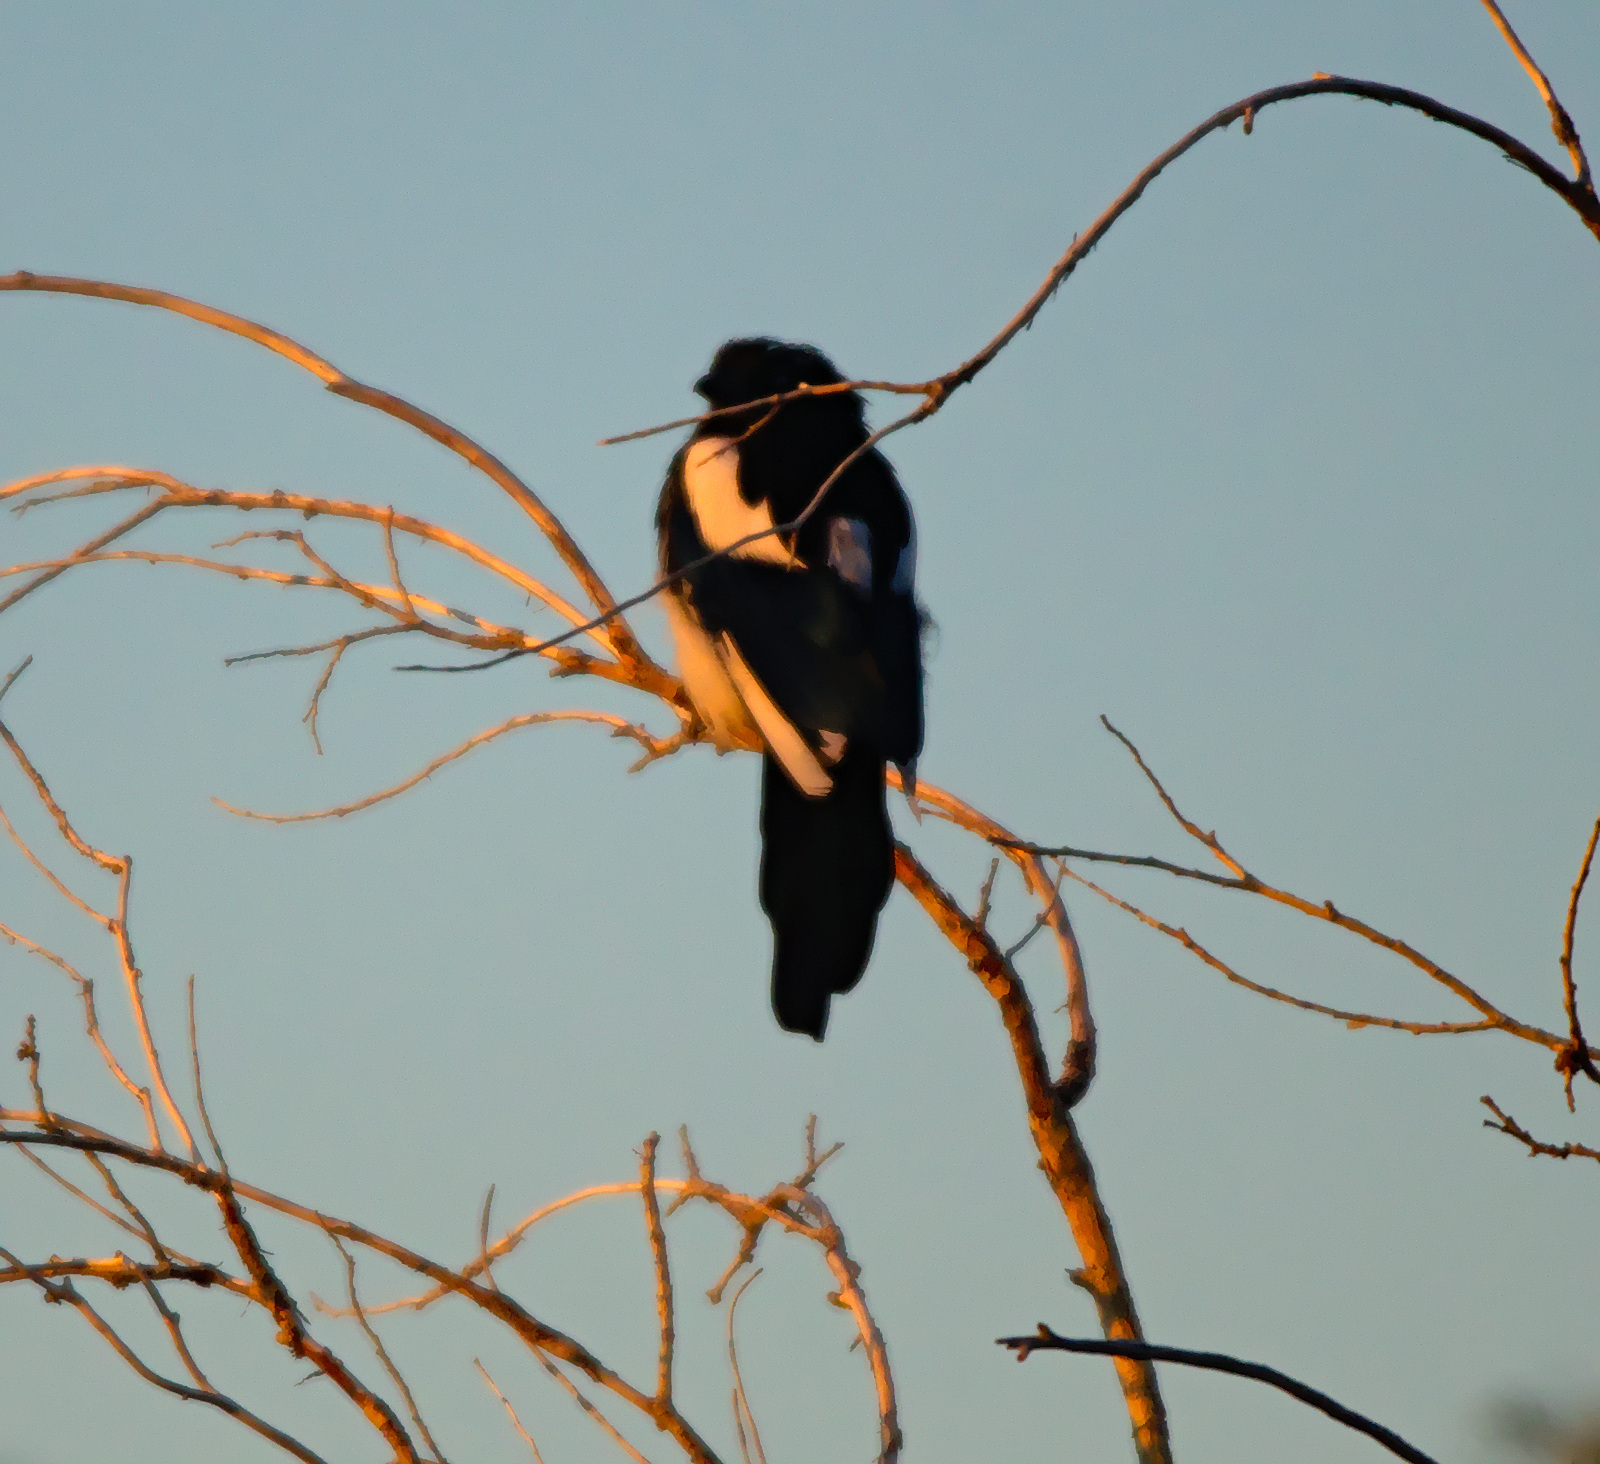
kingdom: Animalia
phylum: Chordata
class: Aves
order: Passeriformes
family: Corvidae
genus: Pica
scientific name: Pica pica
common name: Eurasian magpie
